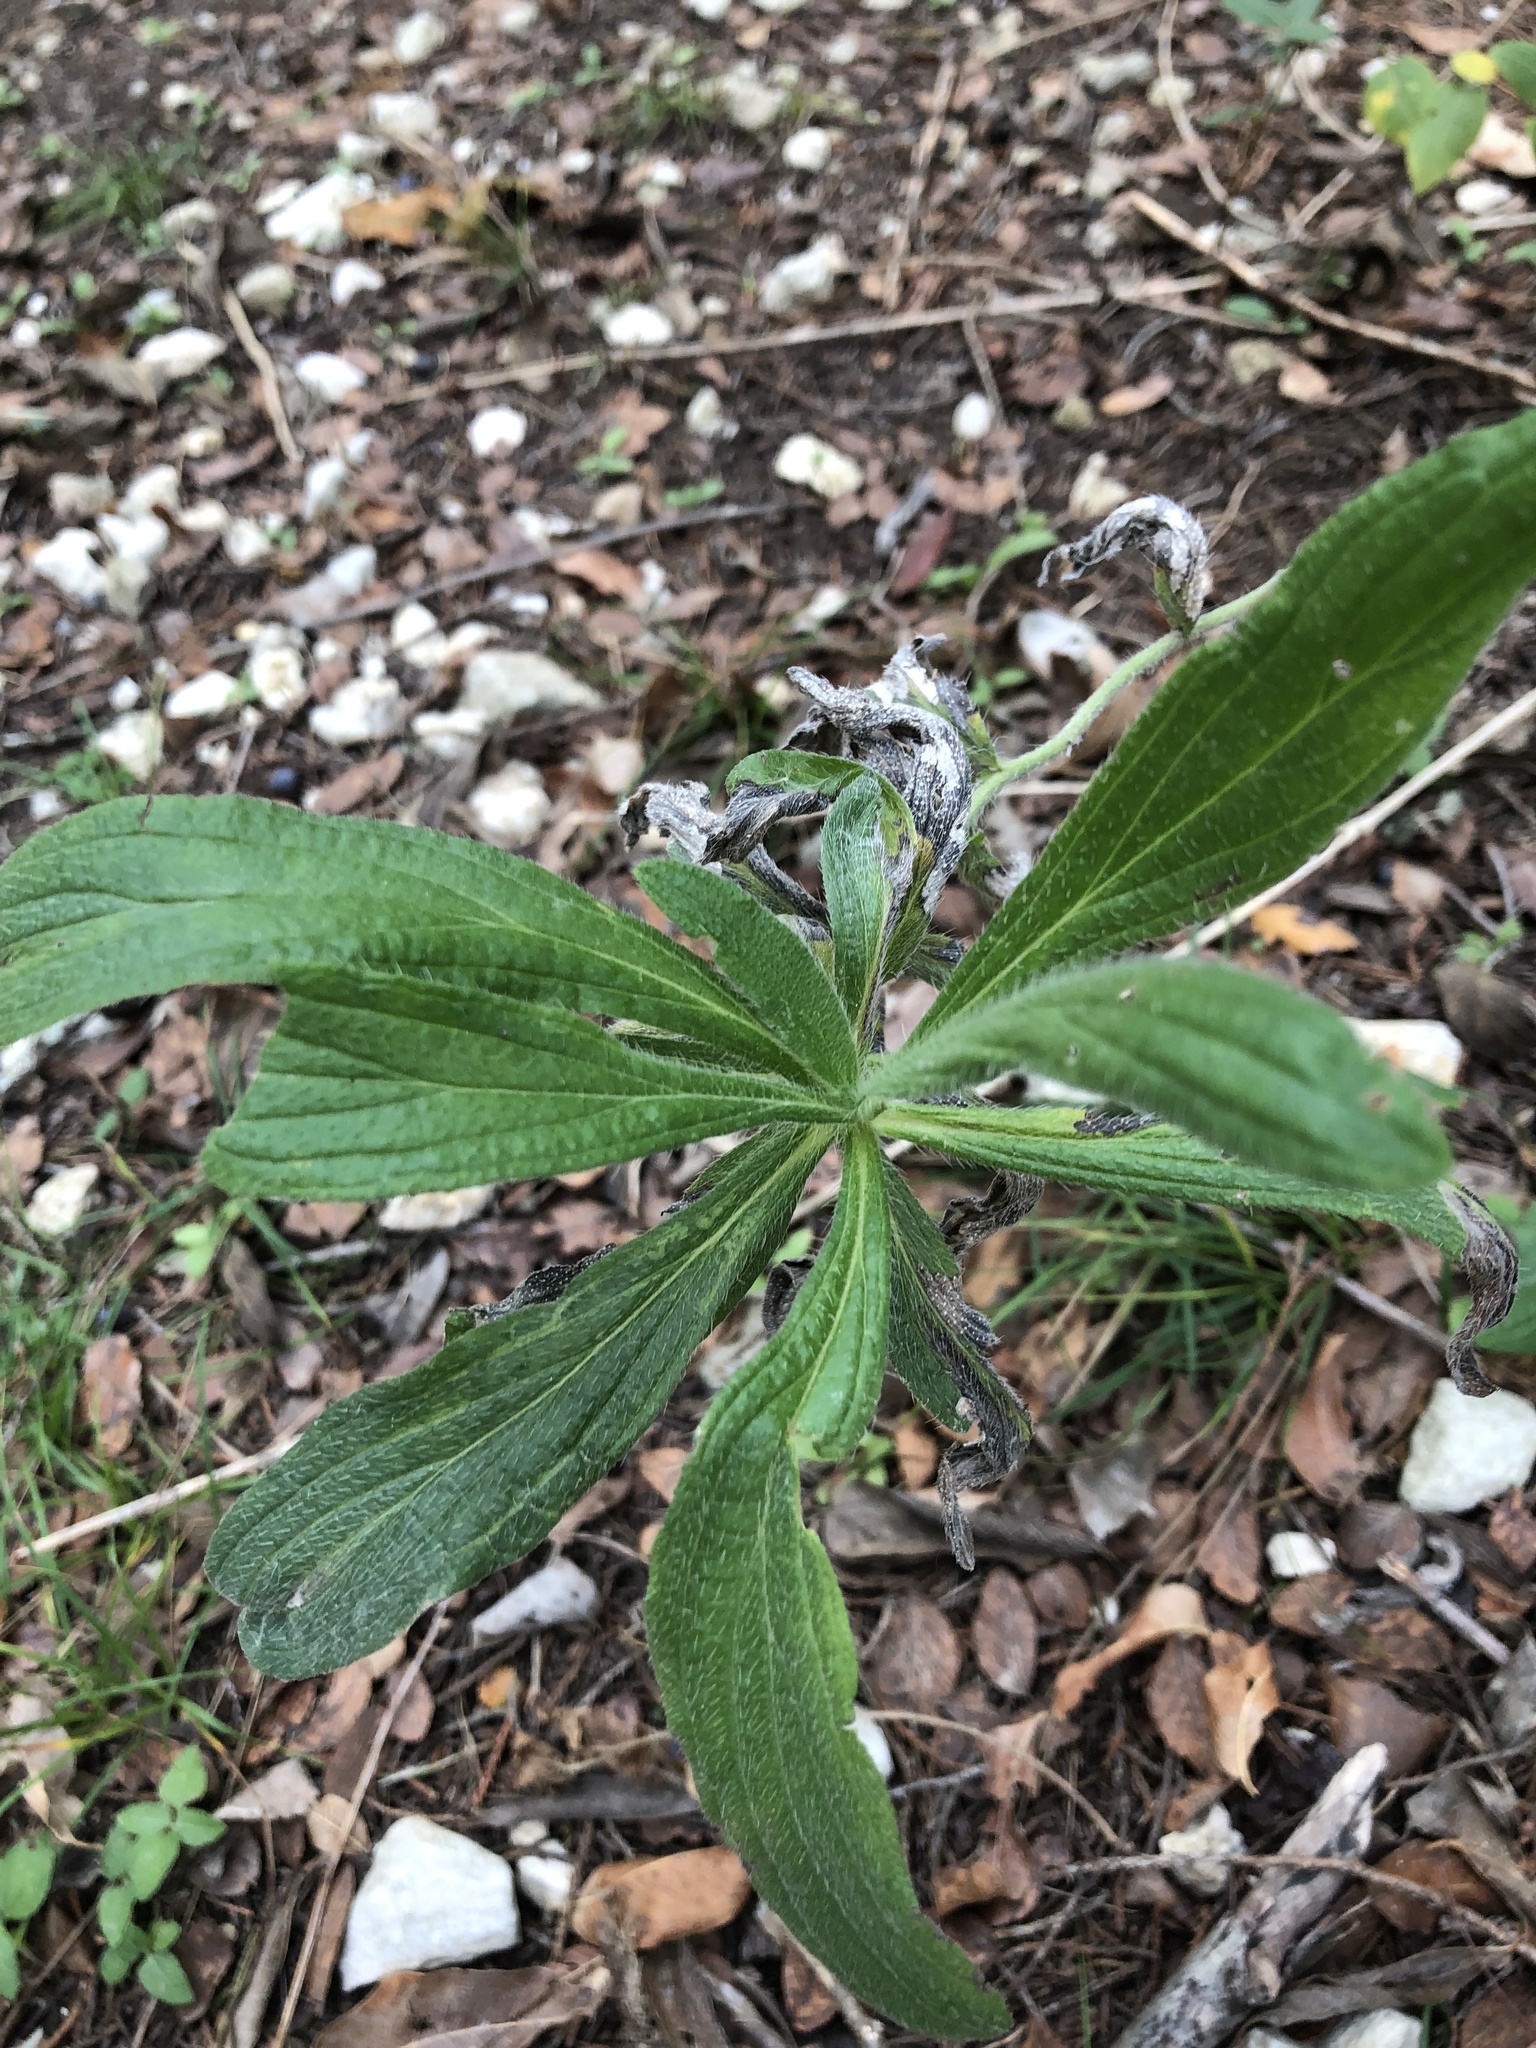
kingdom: Plantae
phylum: Tracheophyta
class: Magnoliopsida
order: Boraginales
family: Boraginaceae
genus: Lithospermum
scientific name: Lithospermum caroliniense
